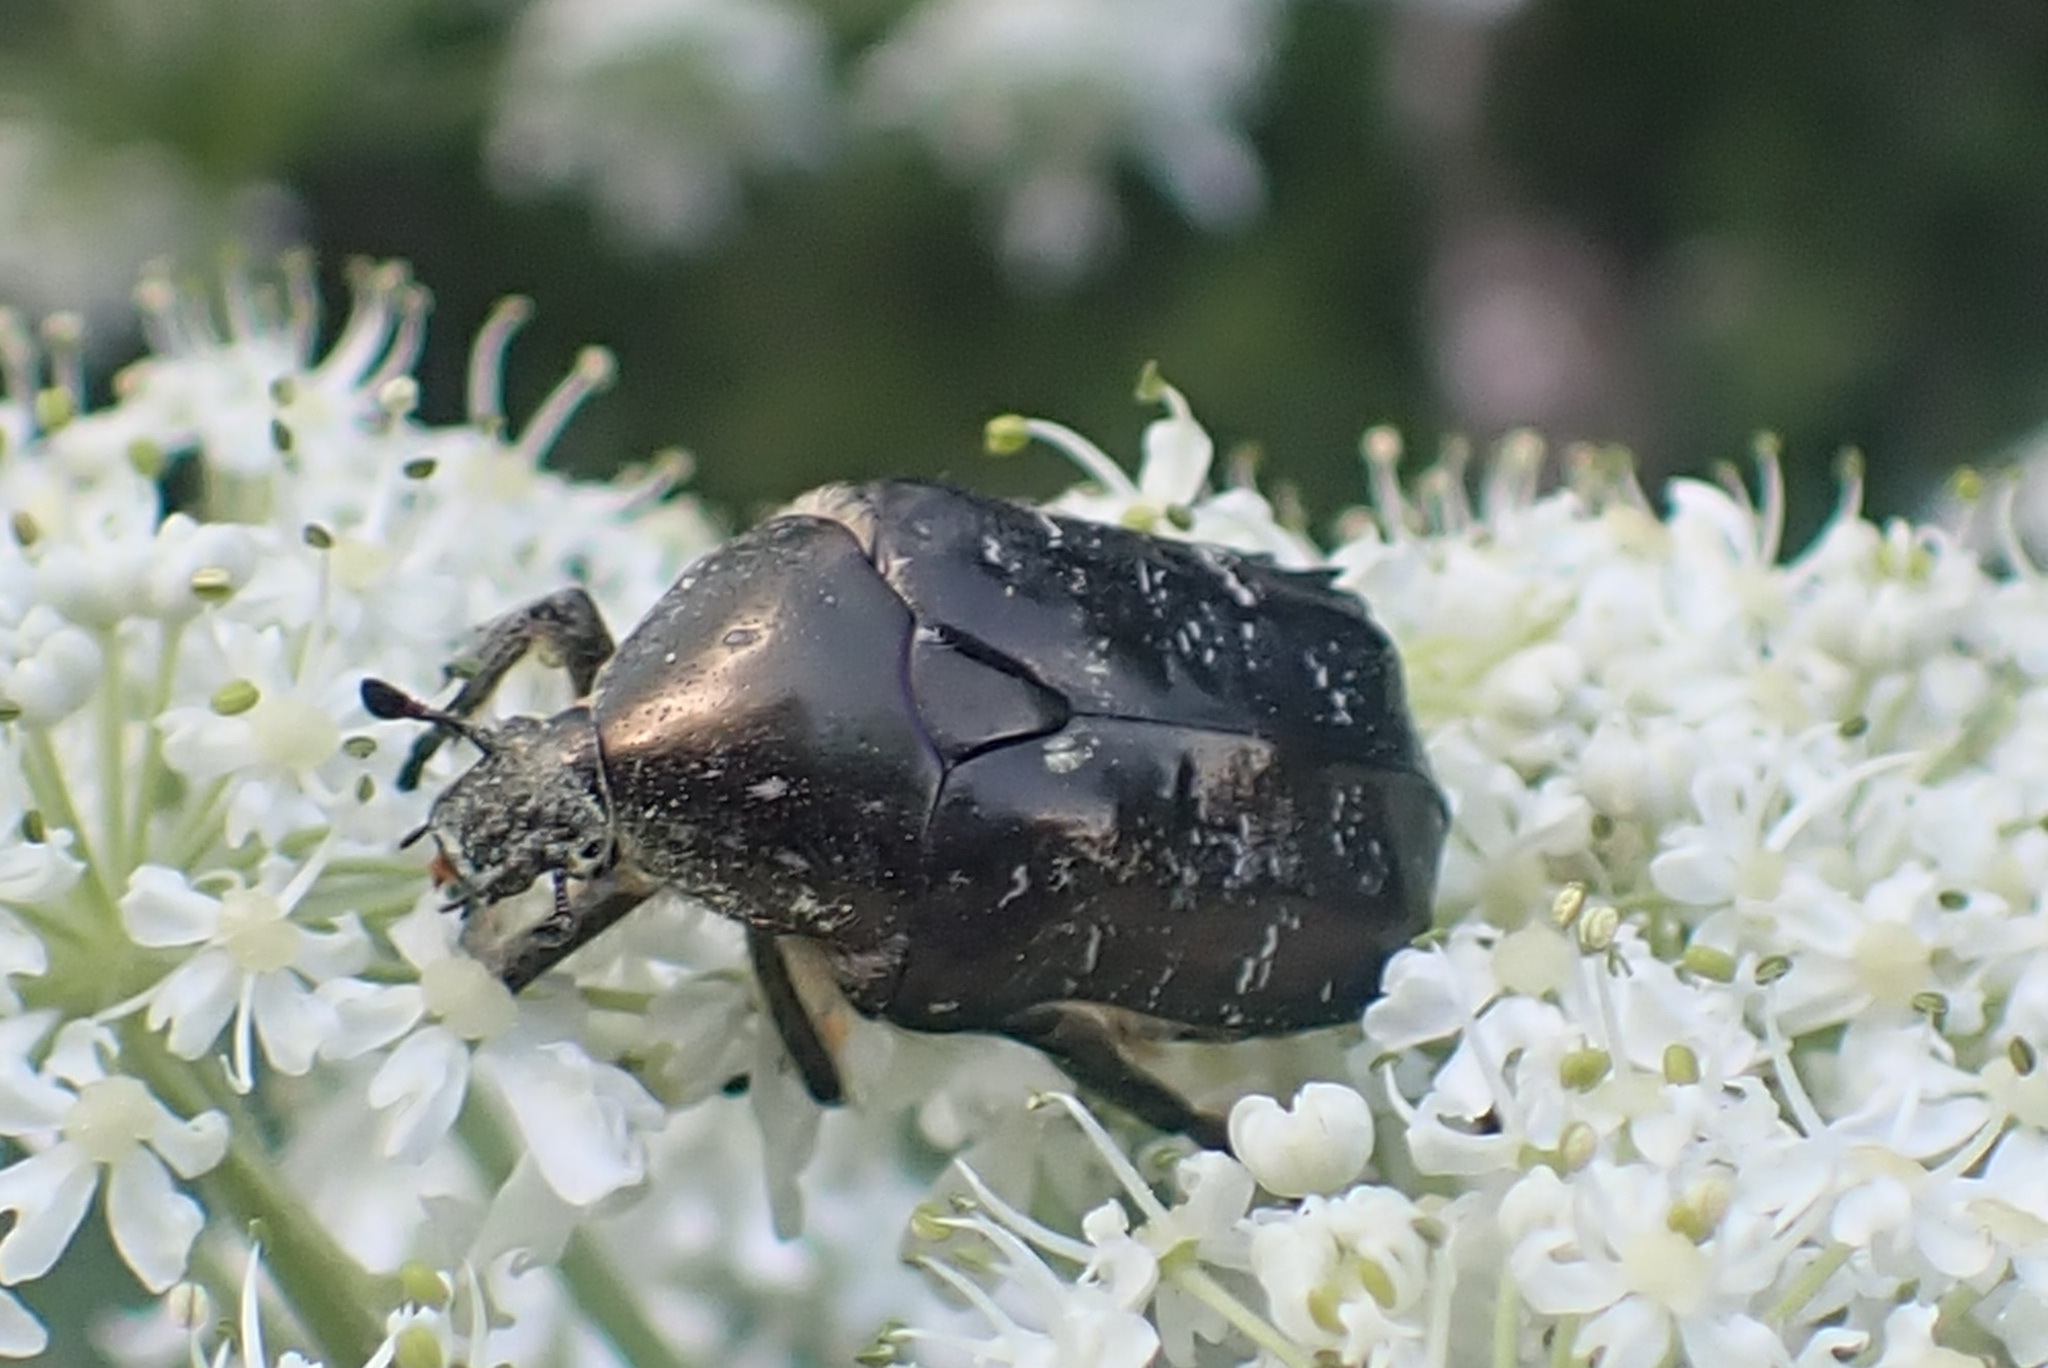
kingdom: Animalia
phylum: Arthropoda
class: Insecta
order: Coleoptera
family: Scarabaeidae
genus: Protaetia
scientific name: Protaetia marmorata
